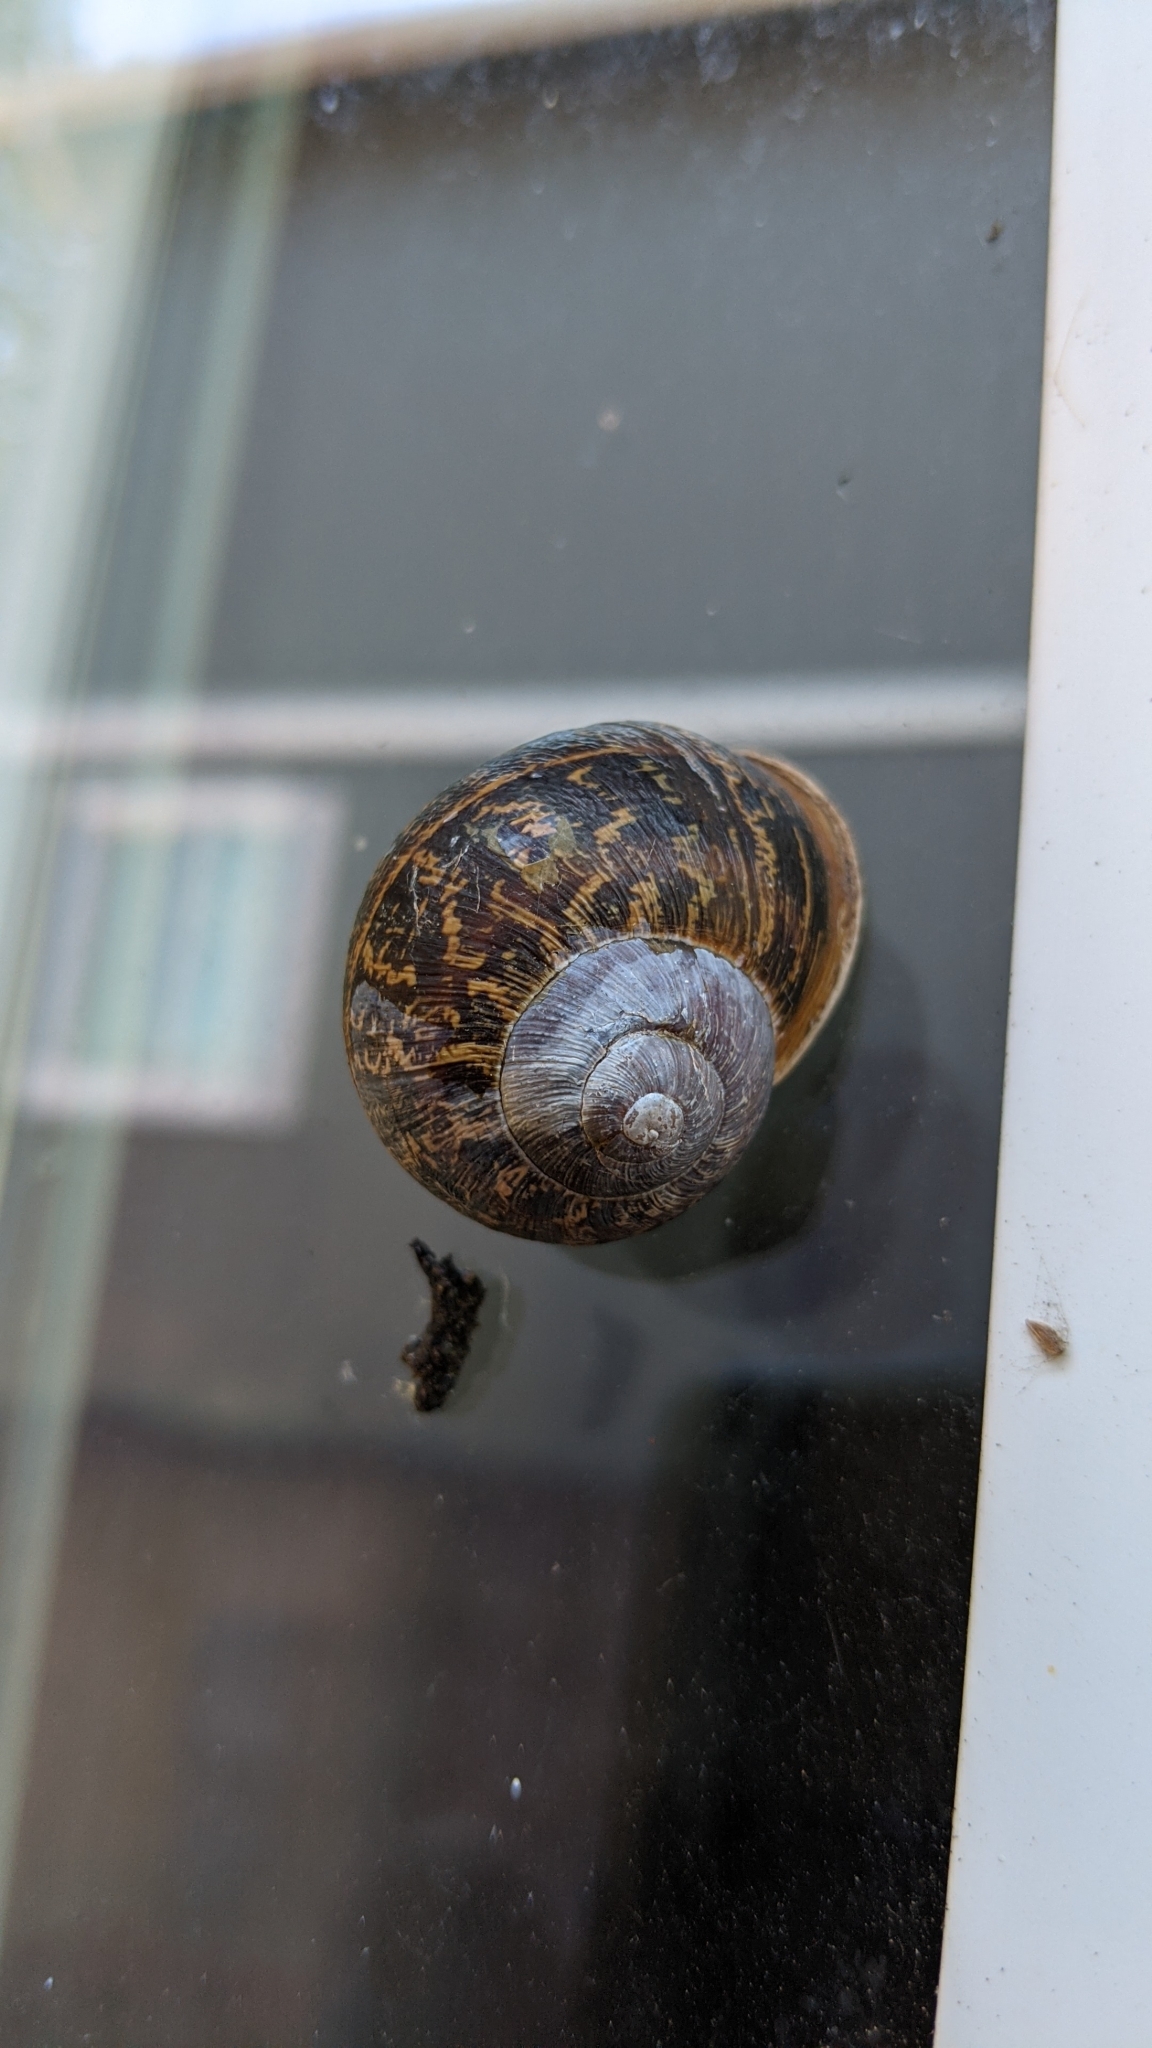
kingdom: Animalia
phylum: Mollusca
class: Gastropoda
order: Stylommatophora
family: Helicidae
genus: Cornu
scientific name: Cornu aspersum
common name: Brown garden snail
